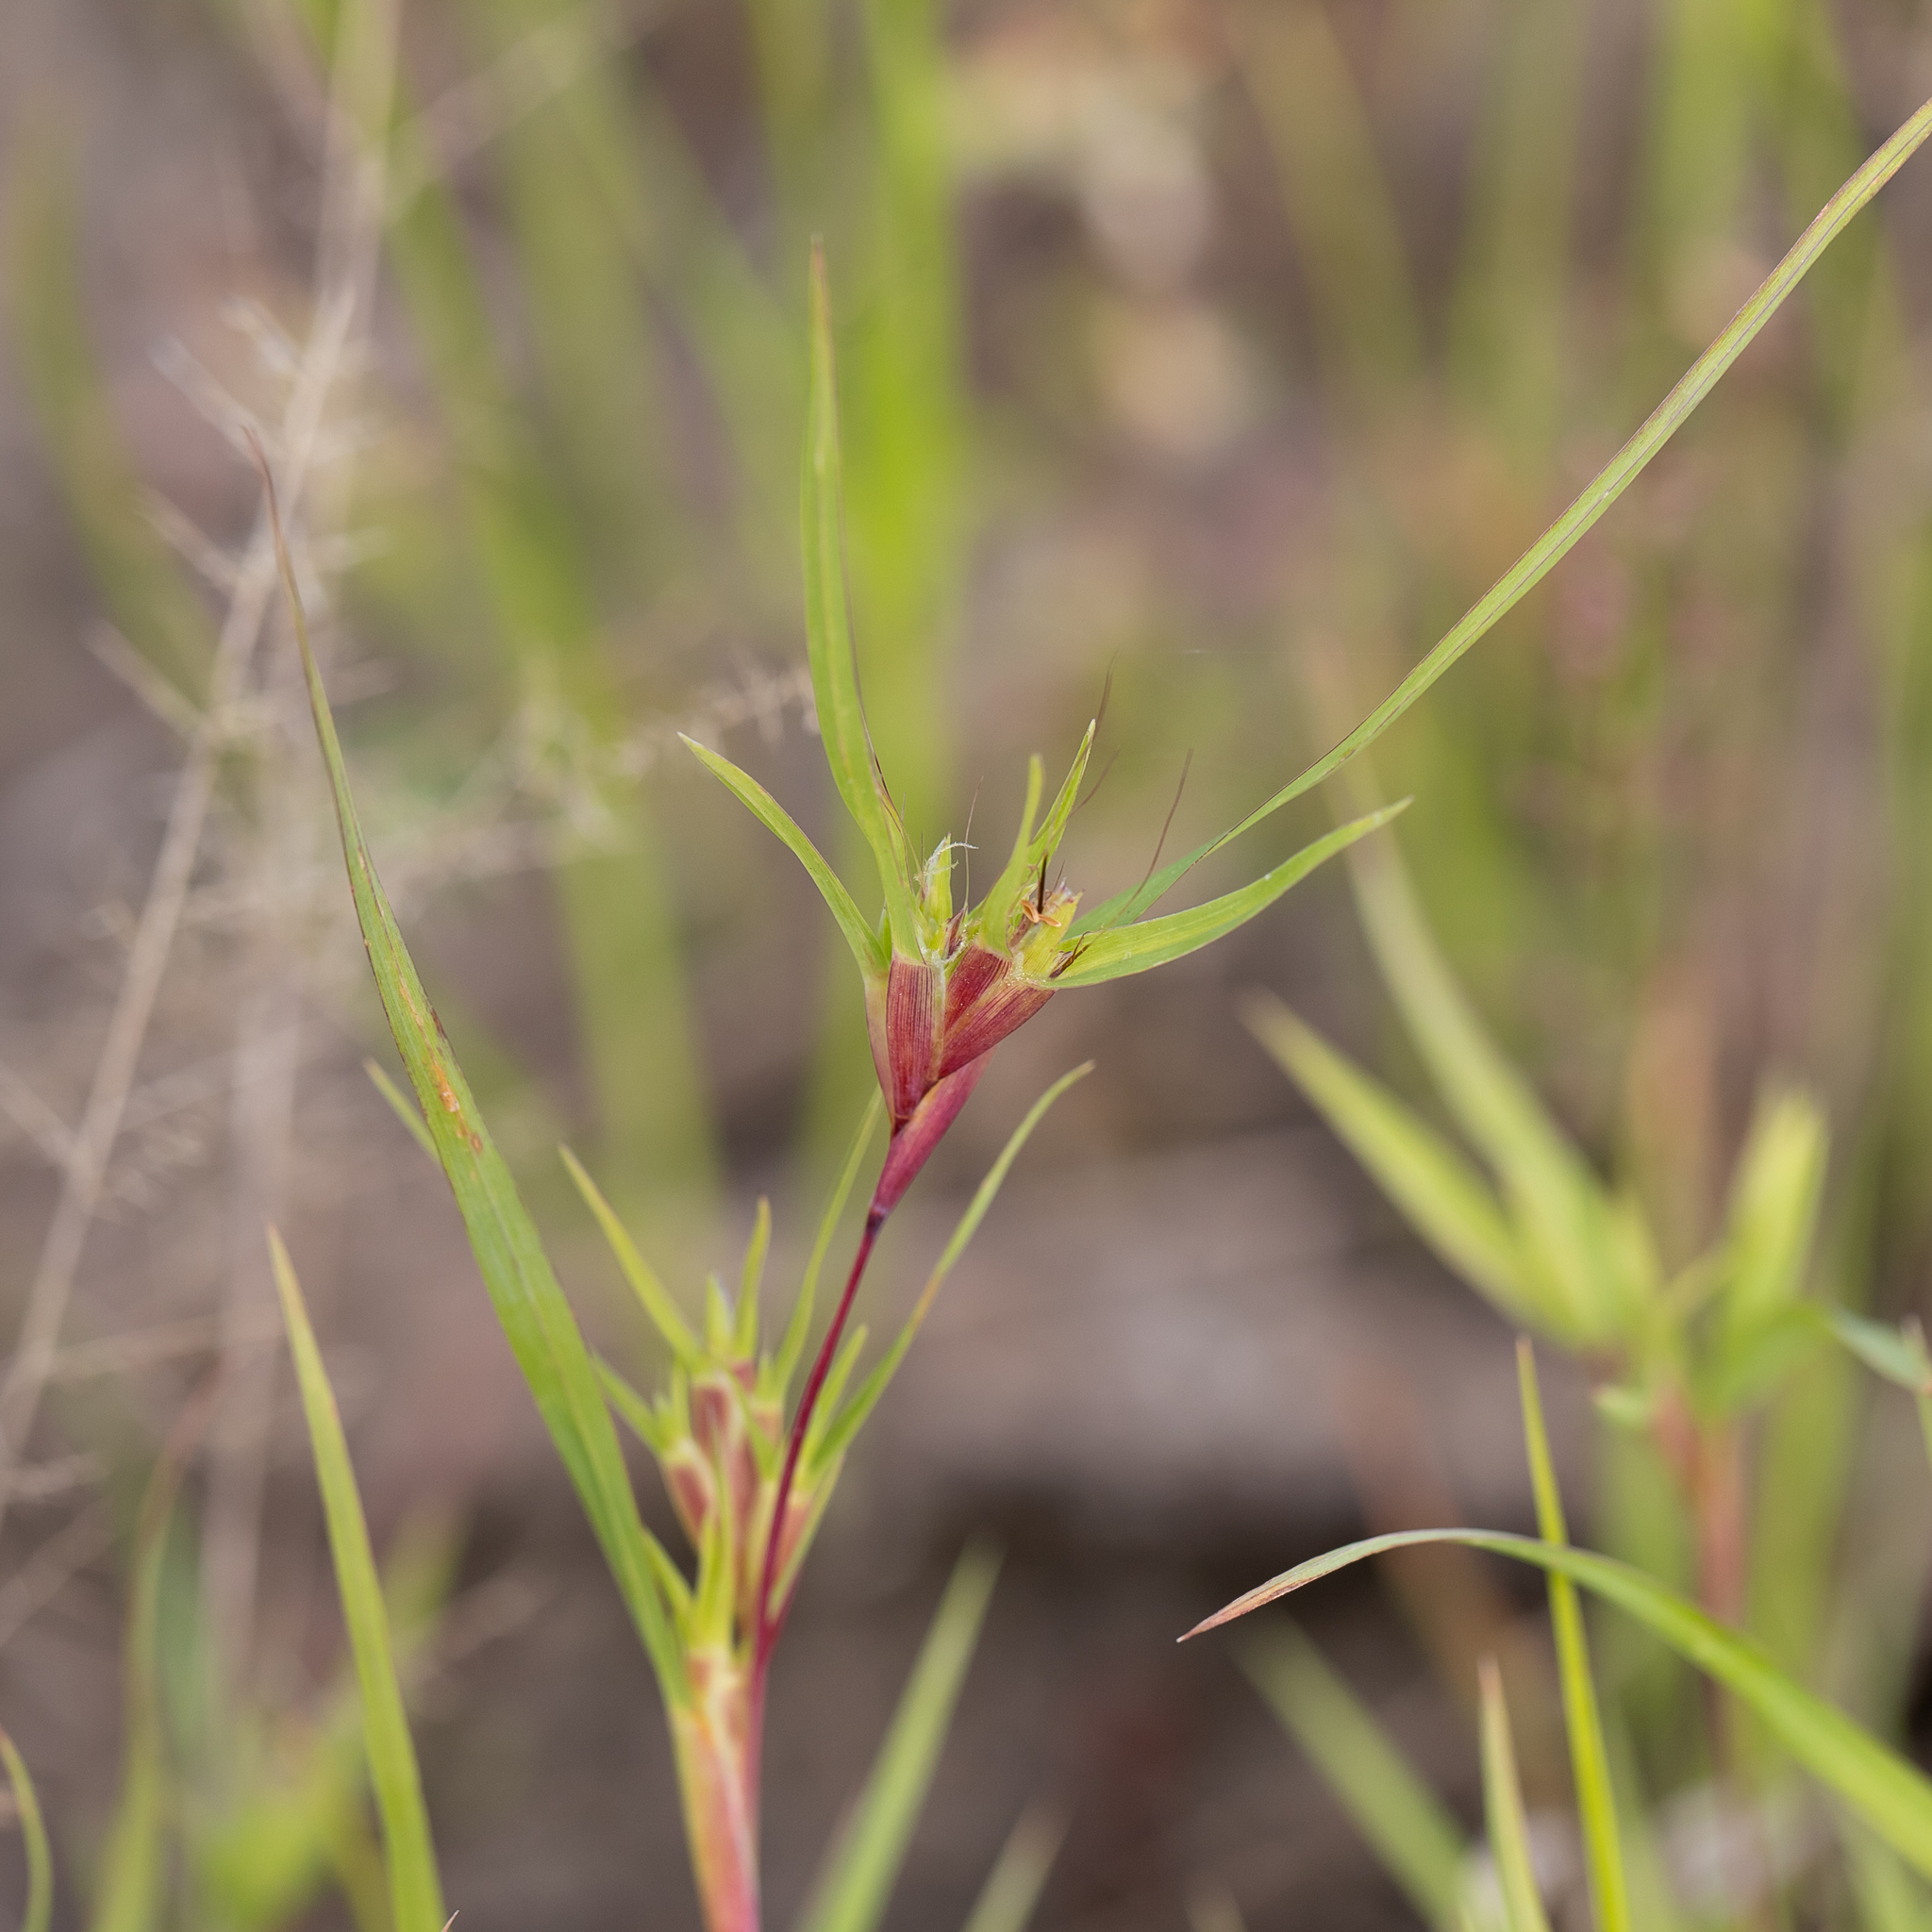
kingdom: Plantae
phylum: Tracheophyta
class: Liliopsida
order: Poales
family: Poaceae
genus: Iseilema
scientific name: Iseilema vaginiflorum
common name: Red flinders grass
